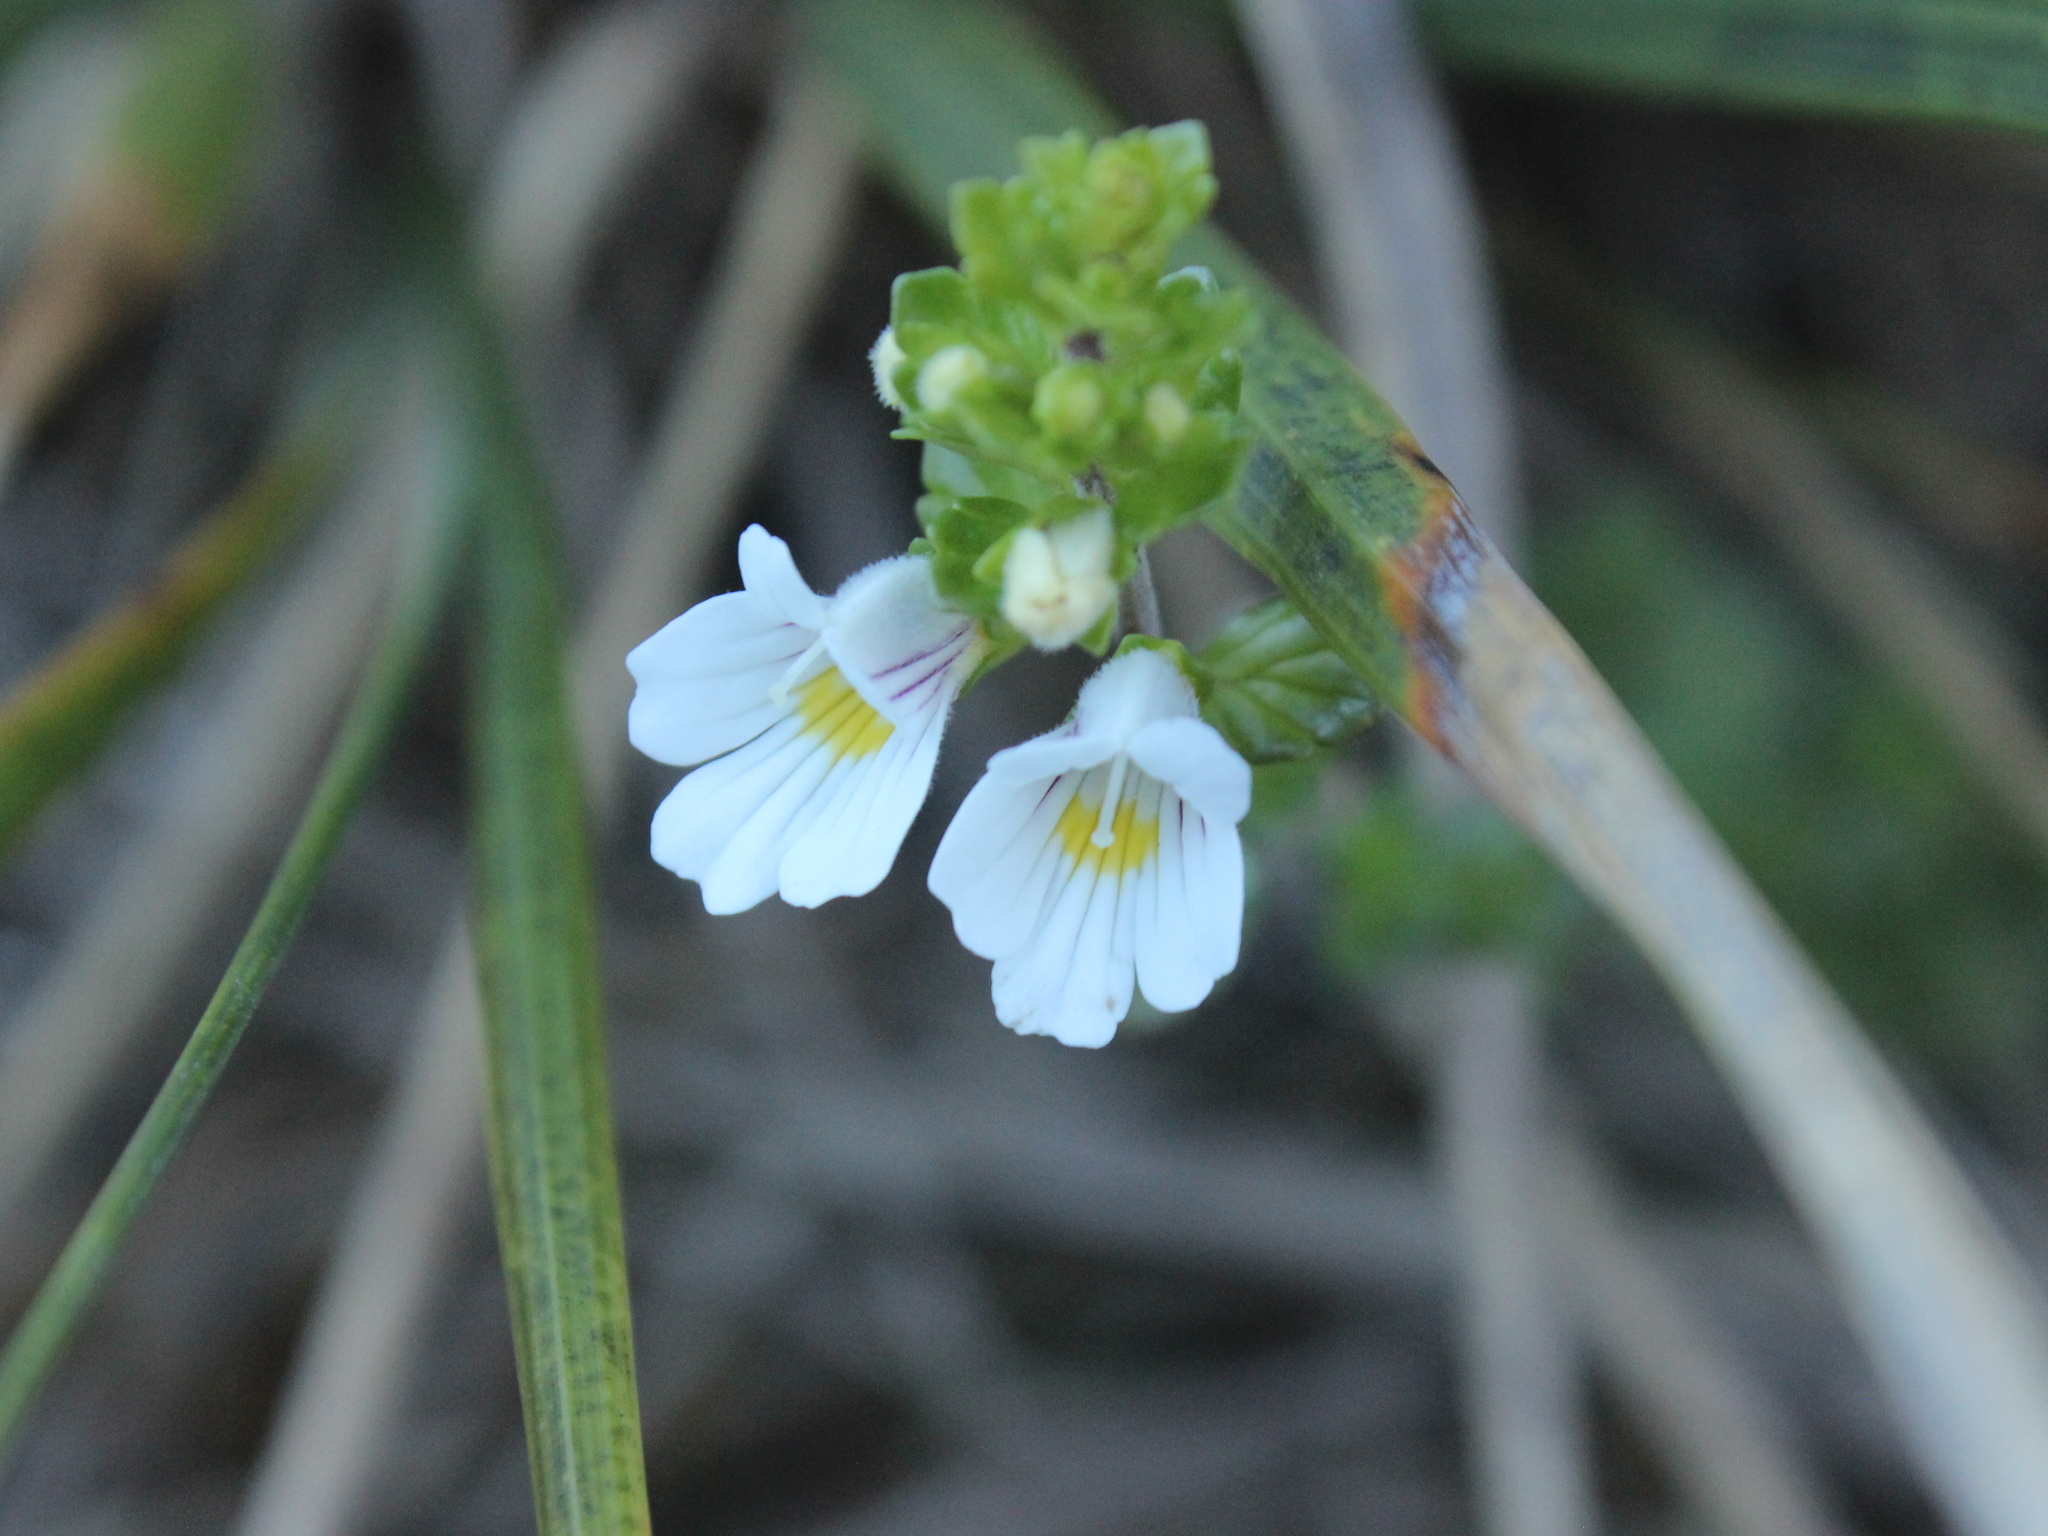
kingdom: Plantae
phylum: Tracheophyta
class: Magnoliopsida
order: Lamiales
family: Orobanchaceae
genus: Euphrasia
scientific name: Euphrasia cuneata
